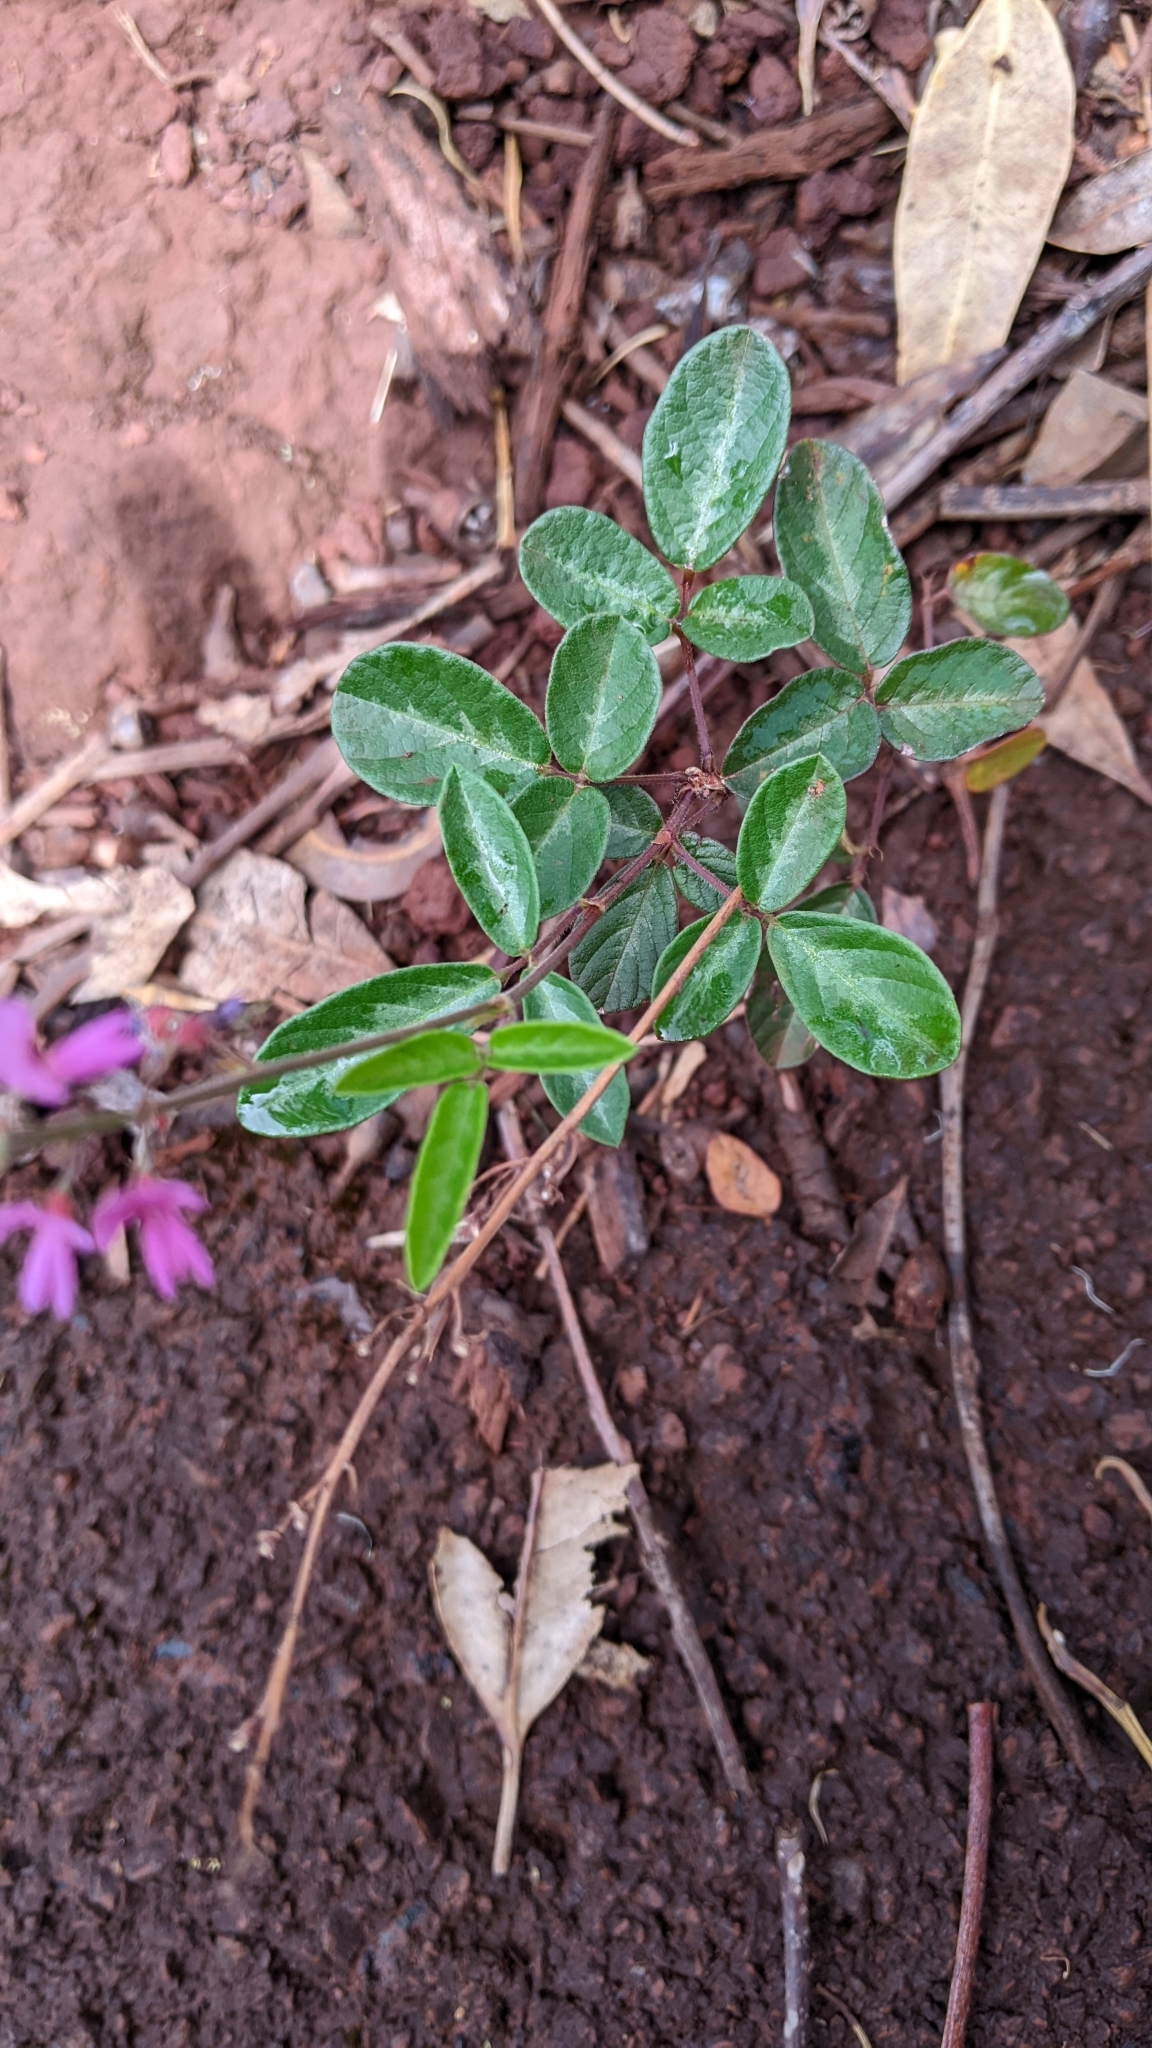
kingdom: Plantae
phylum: Tracheophyta
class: Magnoliopsida
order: Fabales
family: Fabaceae
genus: Desmodium
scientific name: Desmodium incanum
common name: Tickclover
